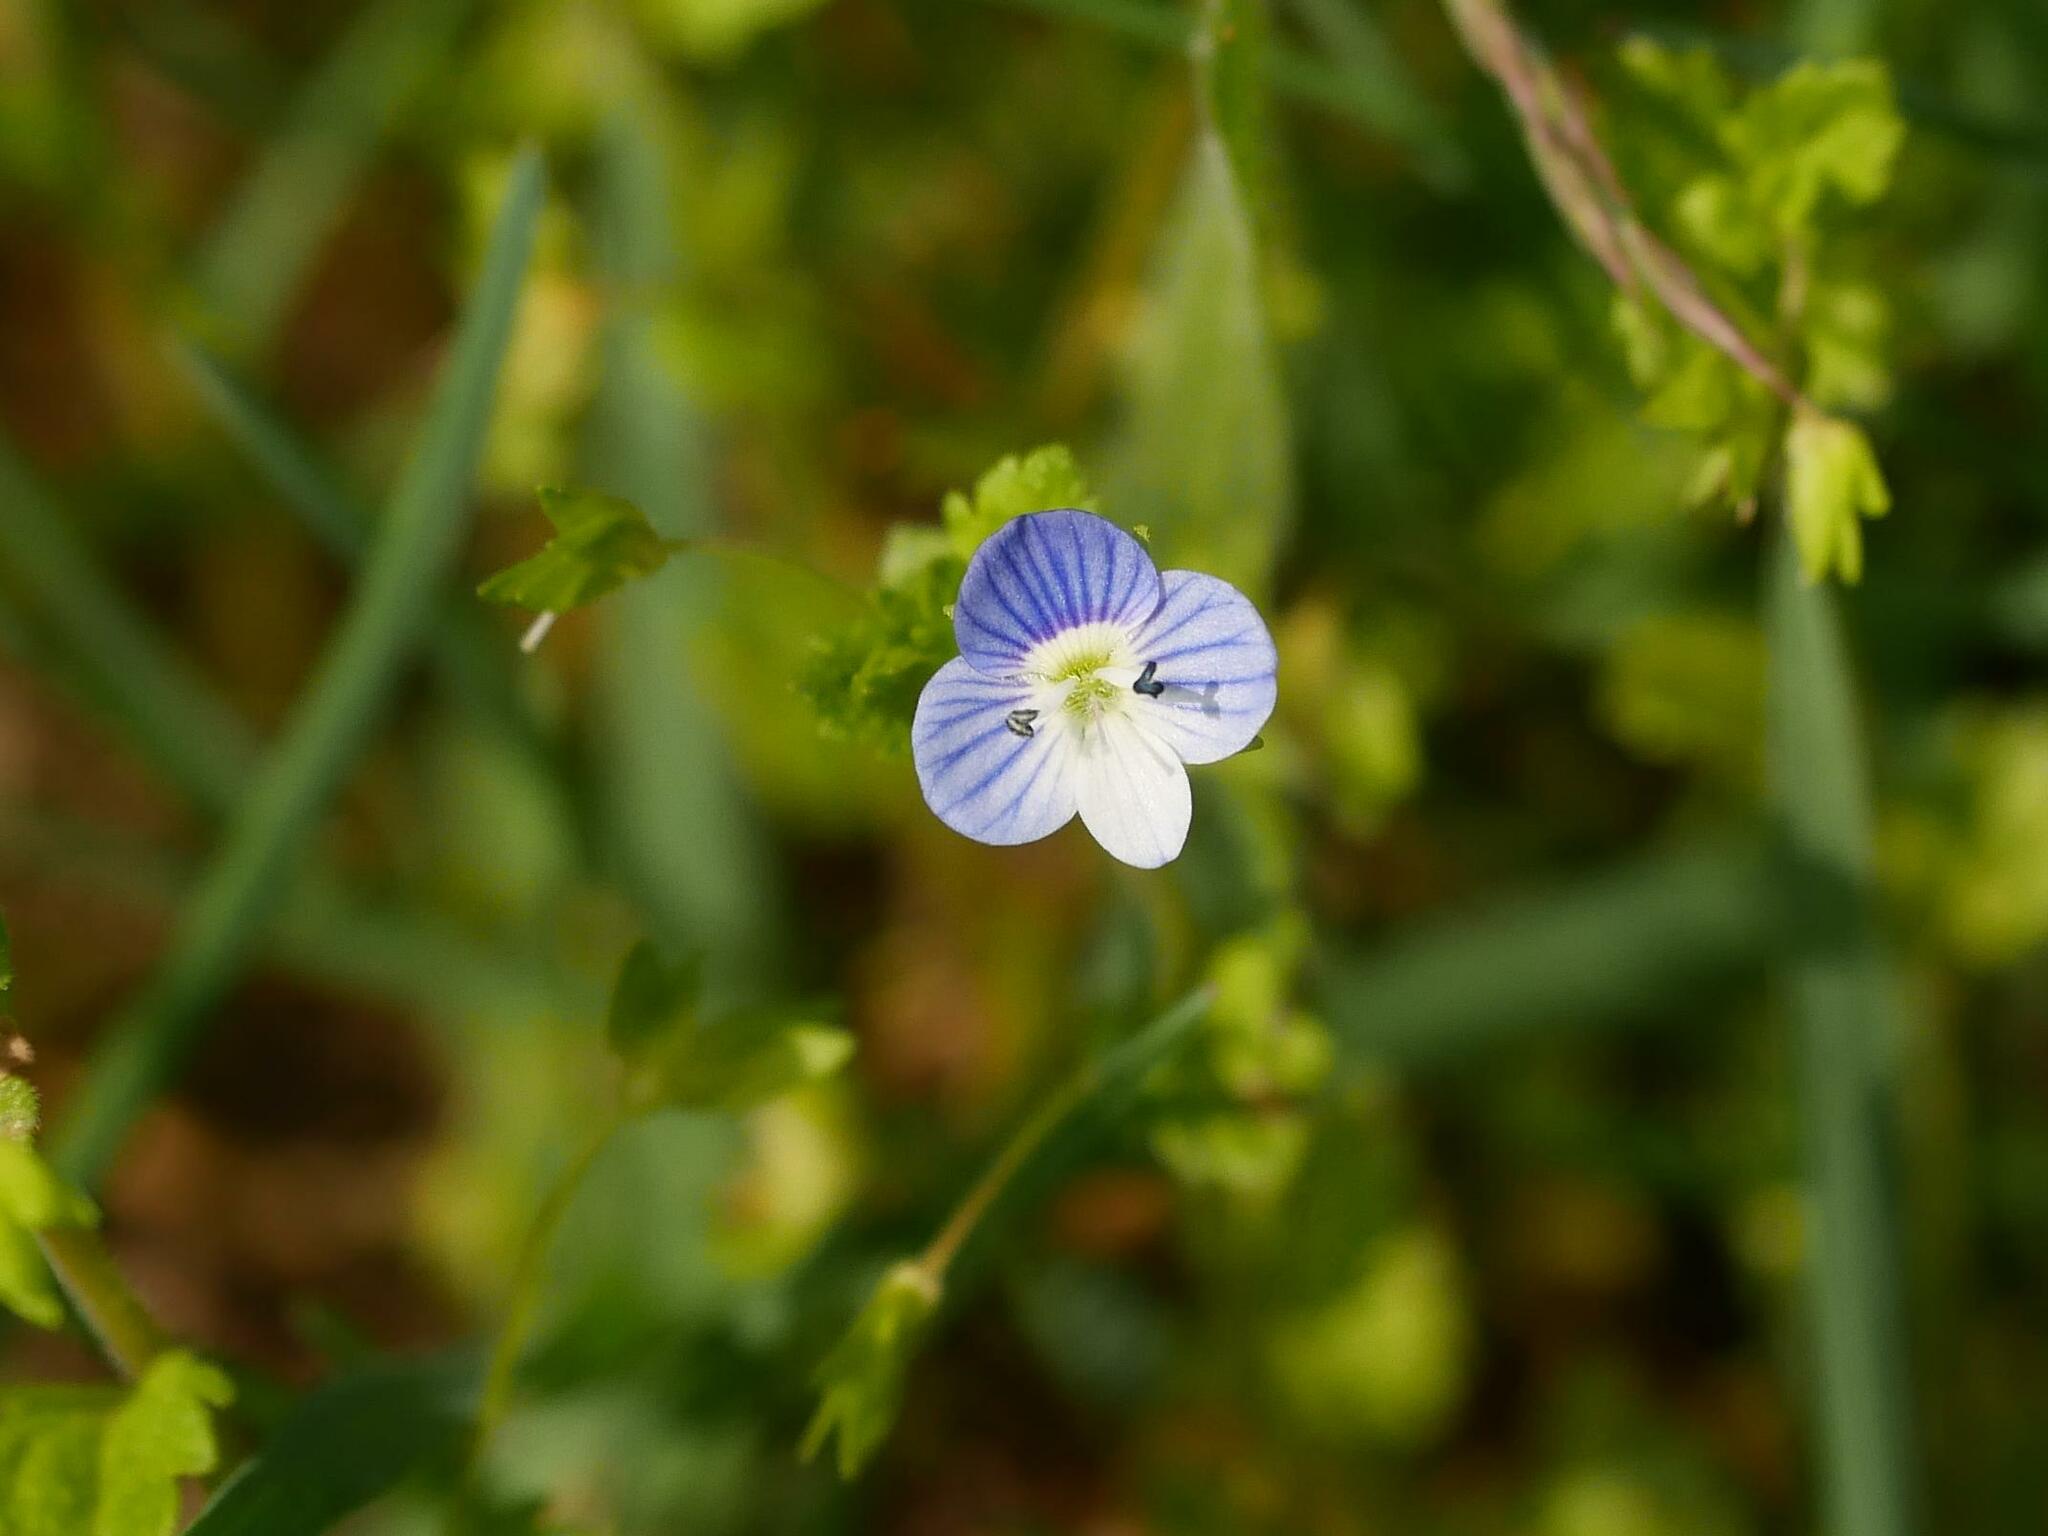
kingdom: Plantae
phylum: Tracheophyta
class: Magnoliopsida
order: Lamiales
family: Plantaginaceae
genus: Veronica
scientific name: Veronica persica
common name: Common field-speedwell
